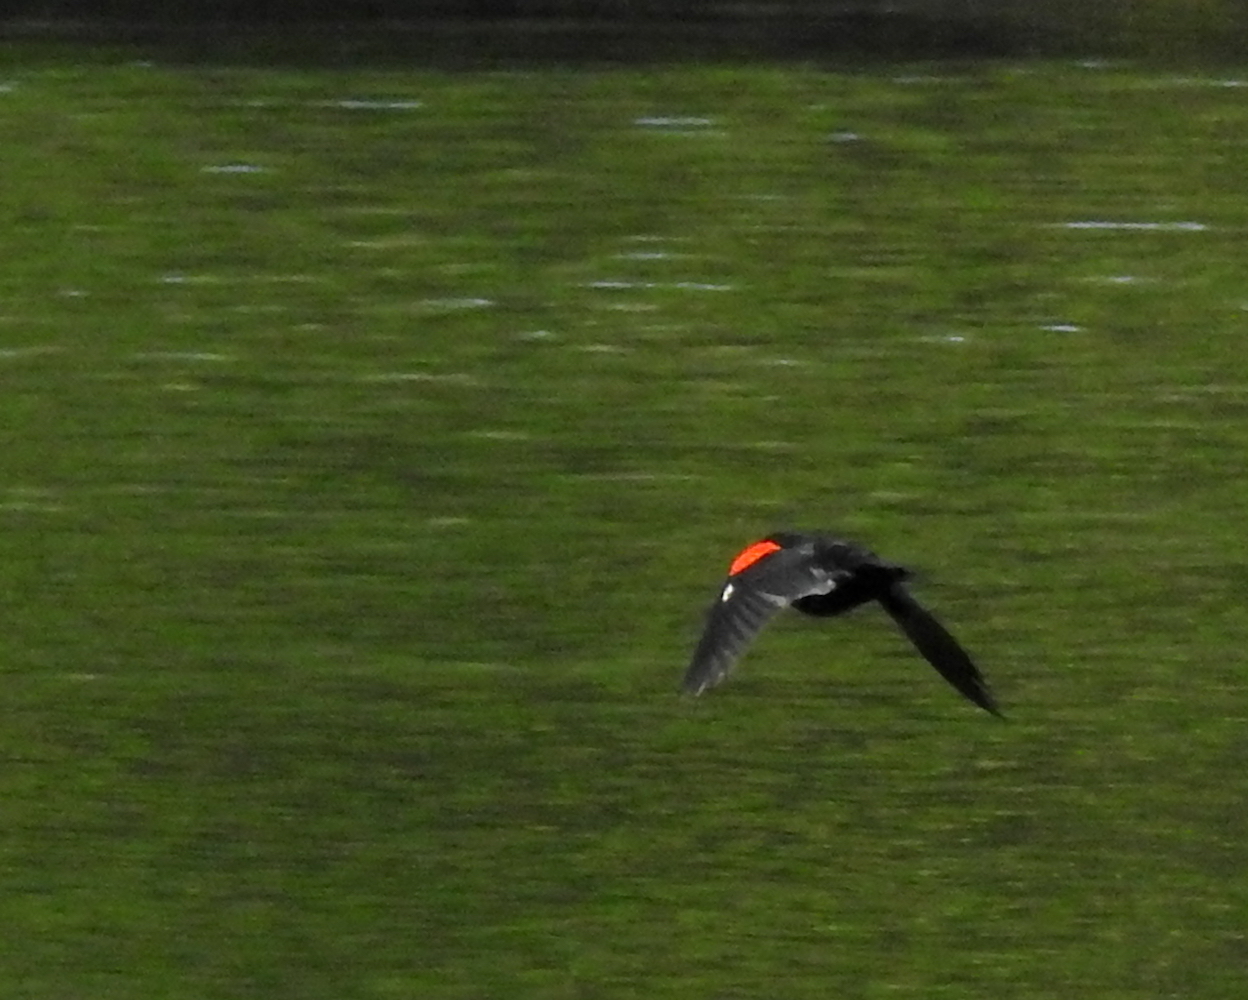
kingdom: Animalia
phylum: Chordata
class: Aves
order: Passeriformes
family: Icteridae
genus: Agelaius
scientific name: Agelaius phoeniceus
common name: Red-winged blackbird
